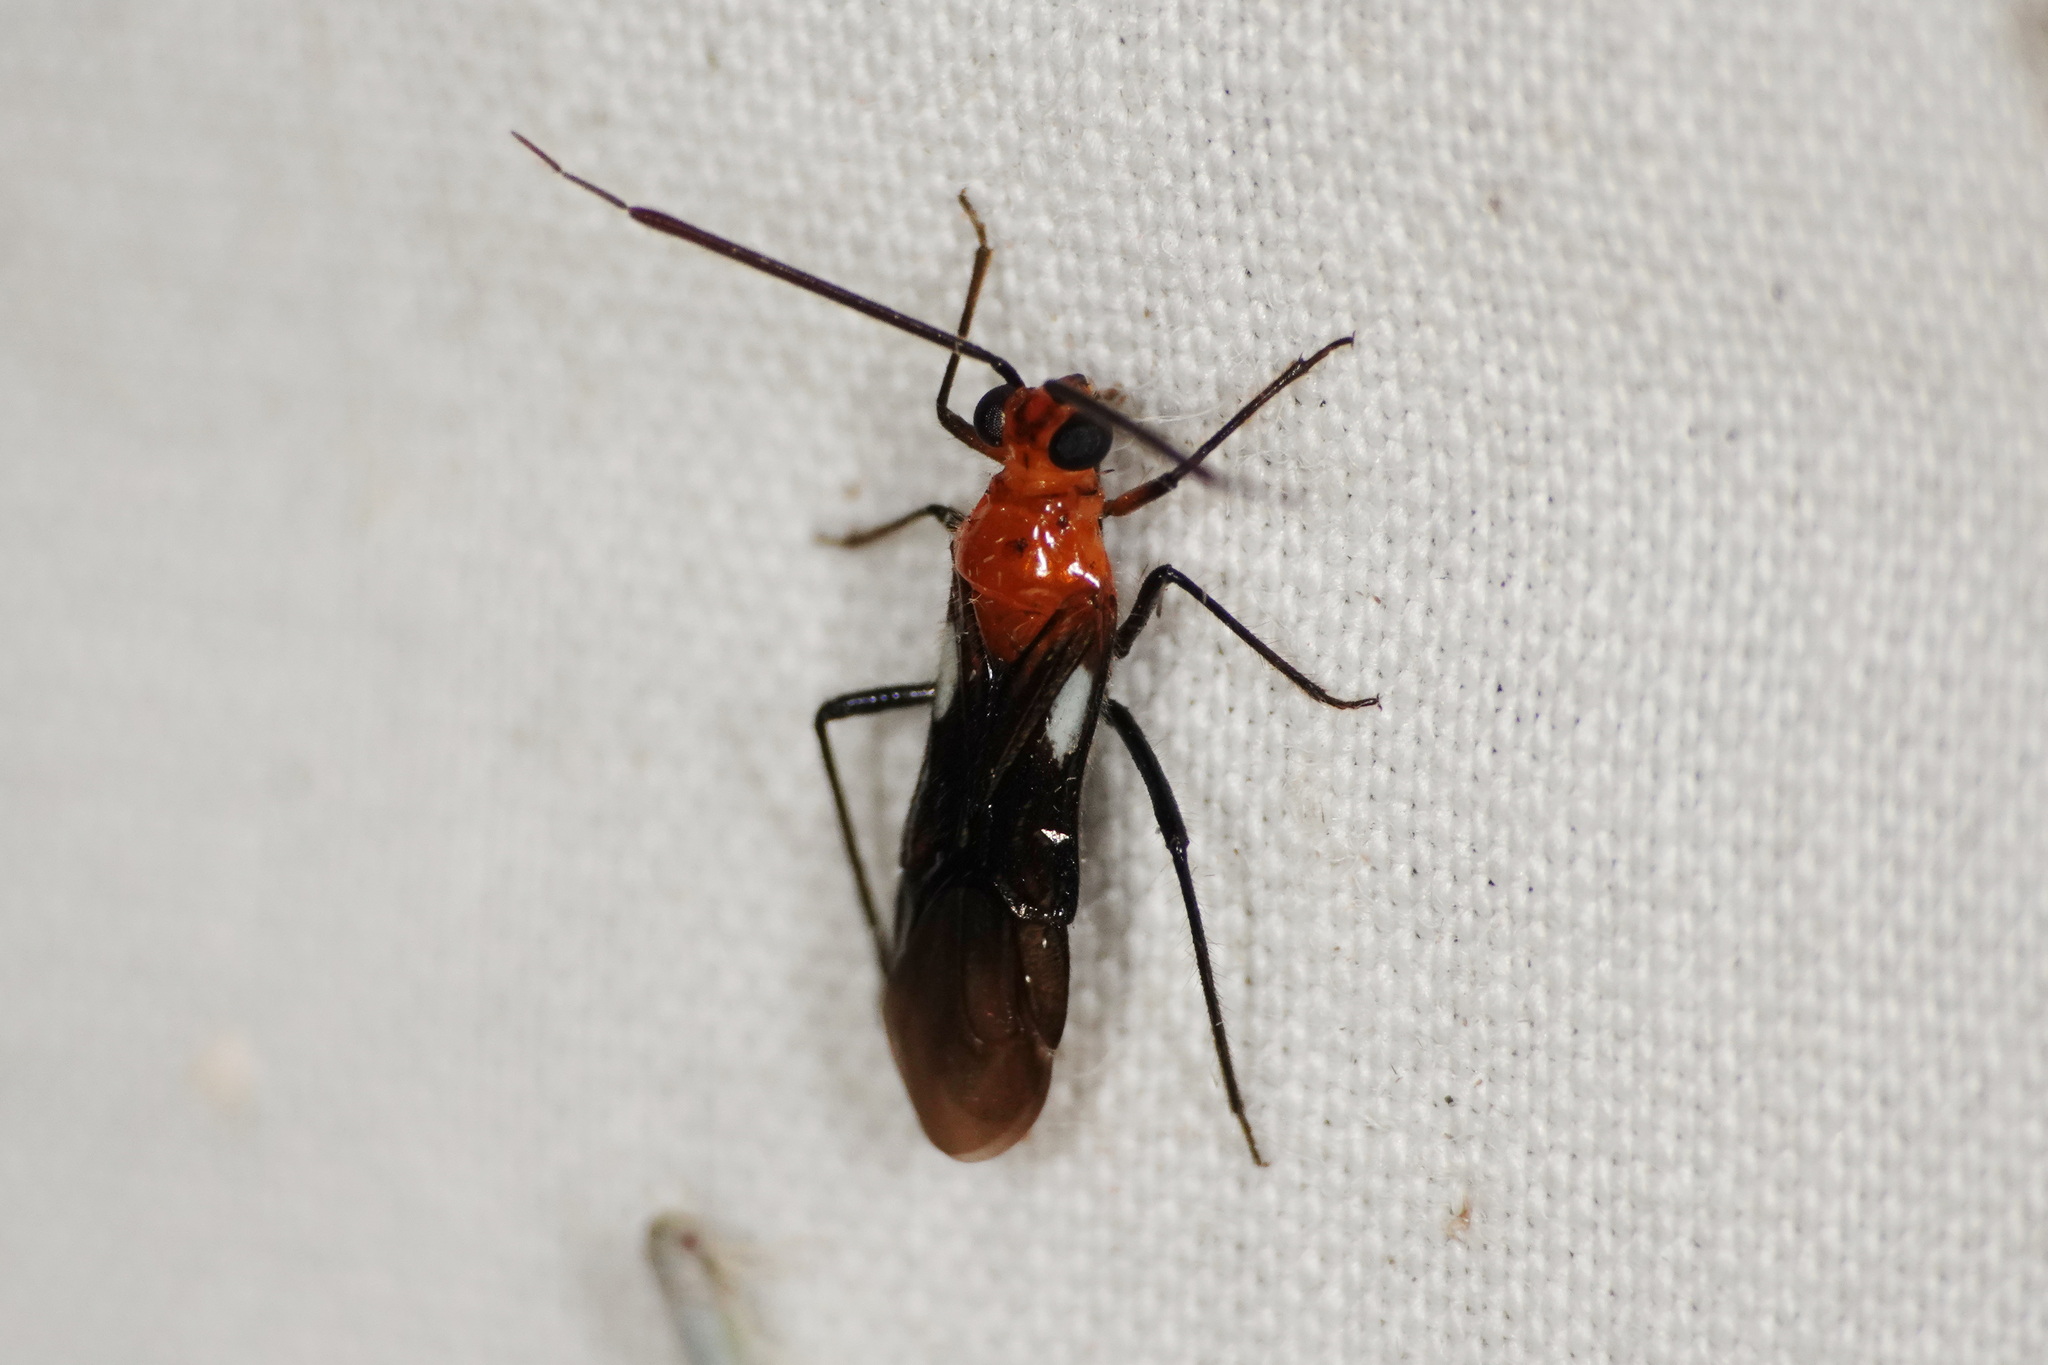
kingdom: Animalia
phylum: Arthropoda
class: Insecta
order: Hemiptera
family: Miridae
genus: Trilaccus
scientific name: Trilaccus
